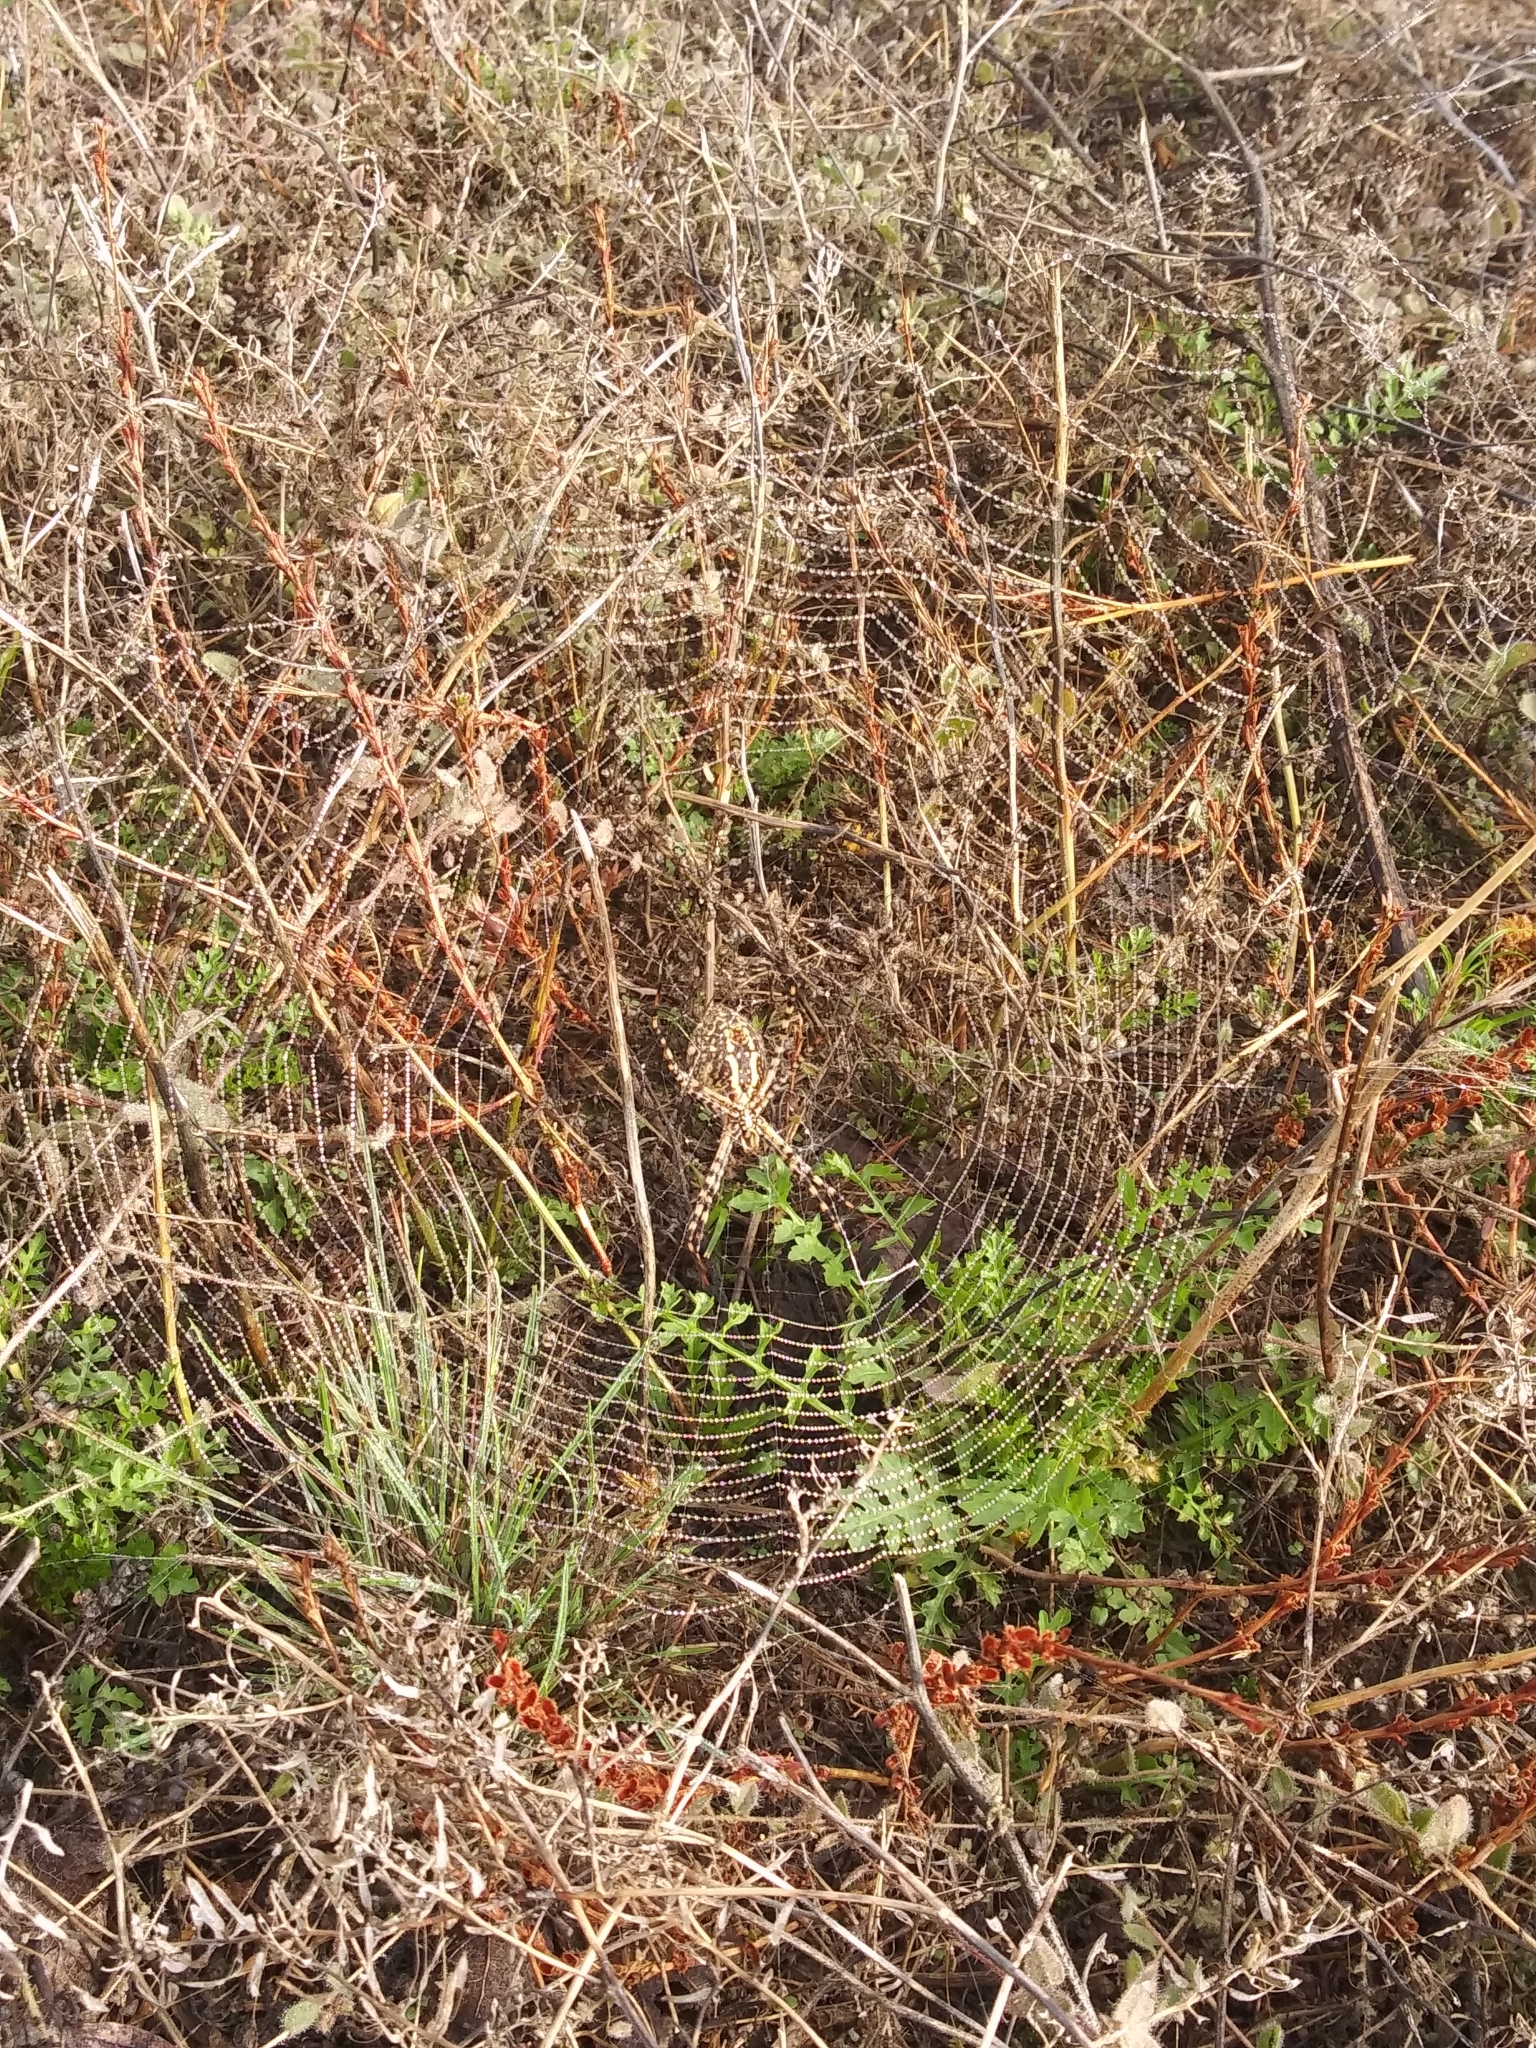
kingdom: Animalia
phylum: Arthropoda
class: Arachnida
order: Araneae
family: Araneidae
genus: Argiope
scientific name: Argiope trifasciata
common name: Banded garden spider
